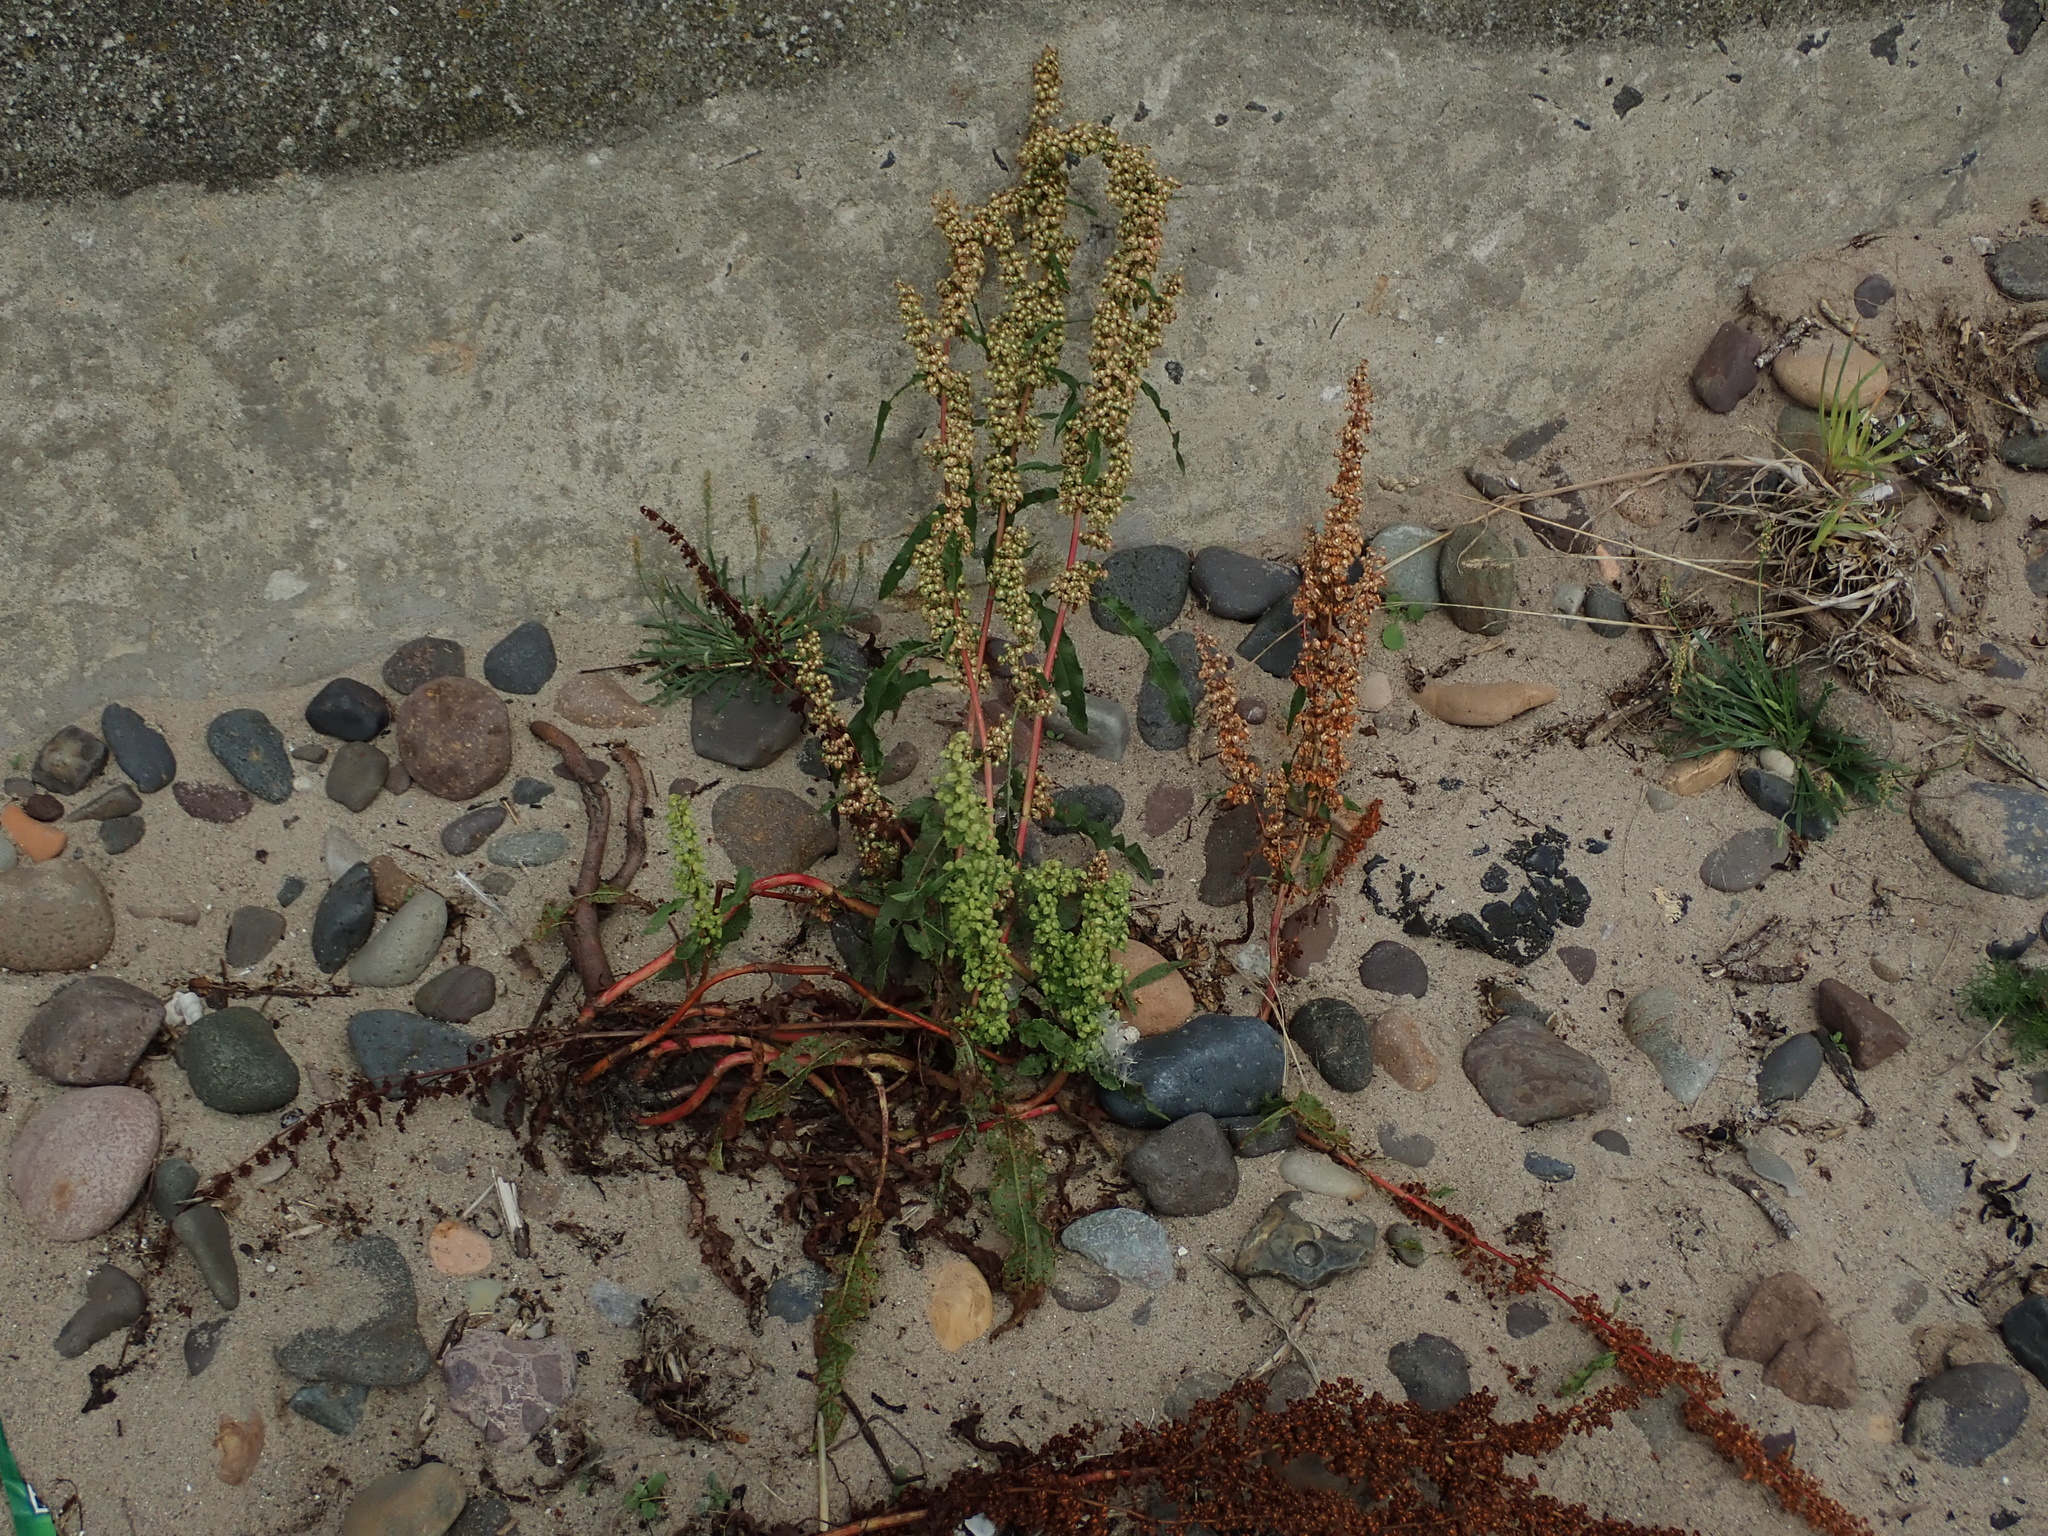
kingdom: Plantae
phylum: Tracheophyta
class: Magnoliopsida
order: Caryophyllales
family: Polygonaceae
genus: Rumex
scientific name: Rumex crispus
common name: Curled dock
